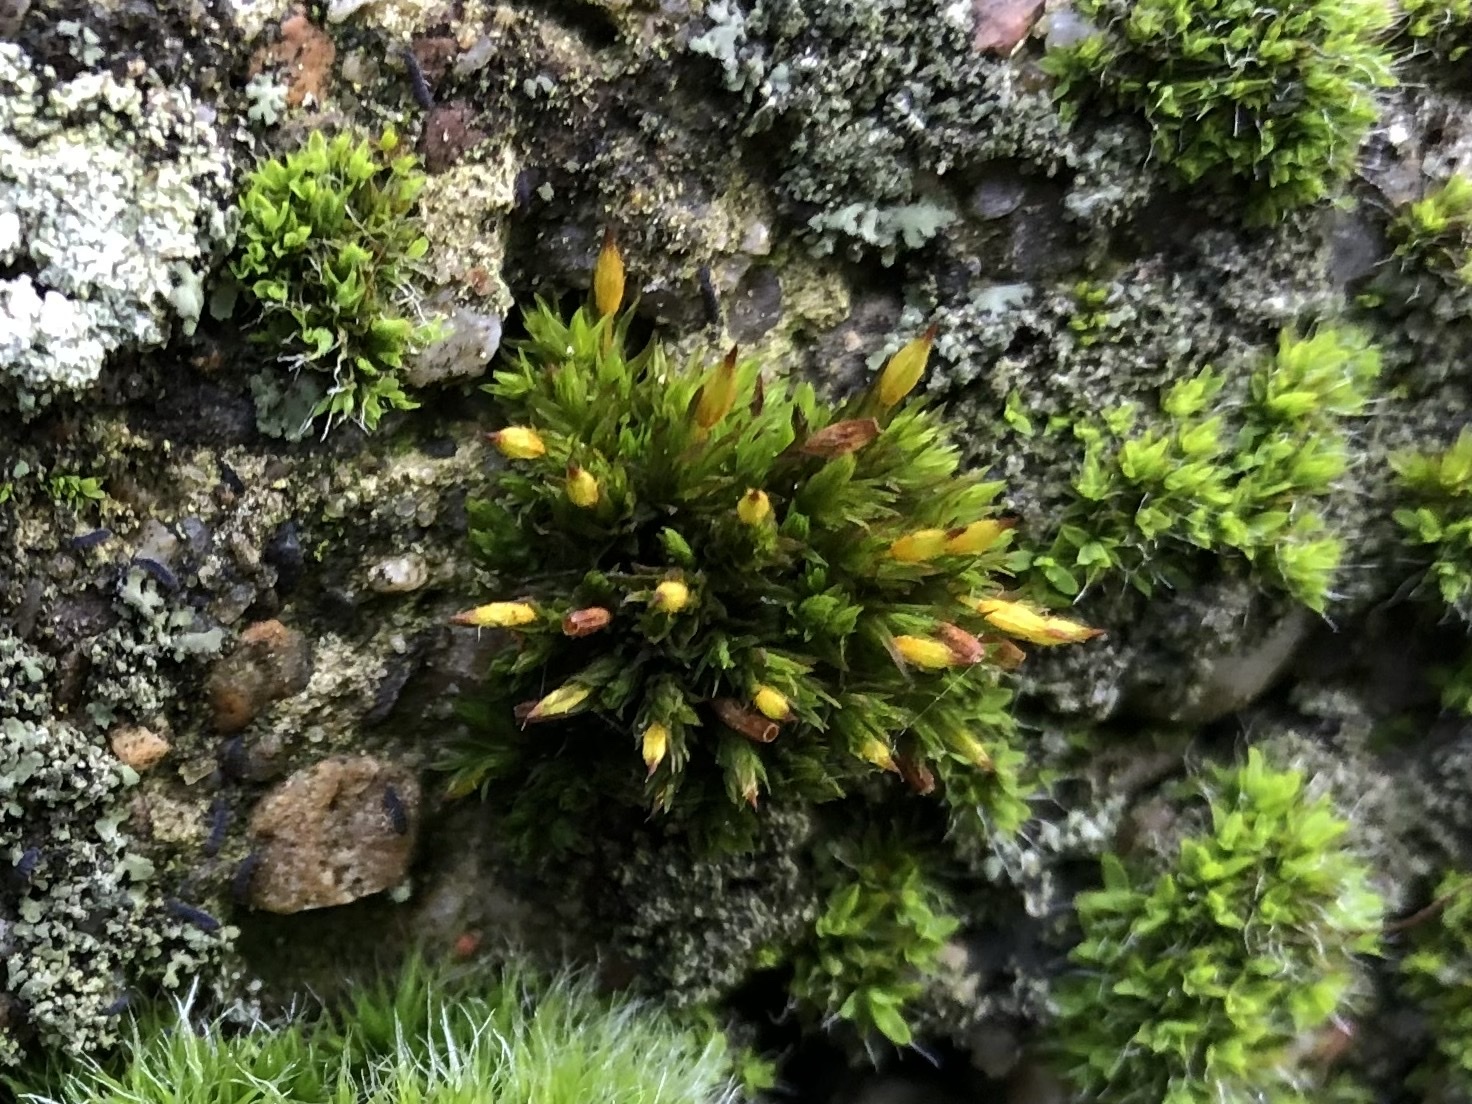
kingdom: Plantae
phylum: Bryophyta
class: Bryopsida
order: Orthotrichales
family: Orthotrichaceae
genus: Orthotrichum
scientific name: Orthotrichum anomalum
